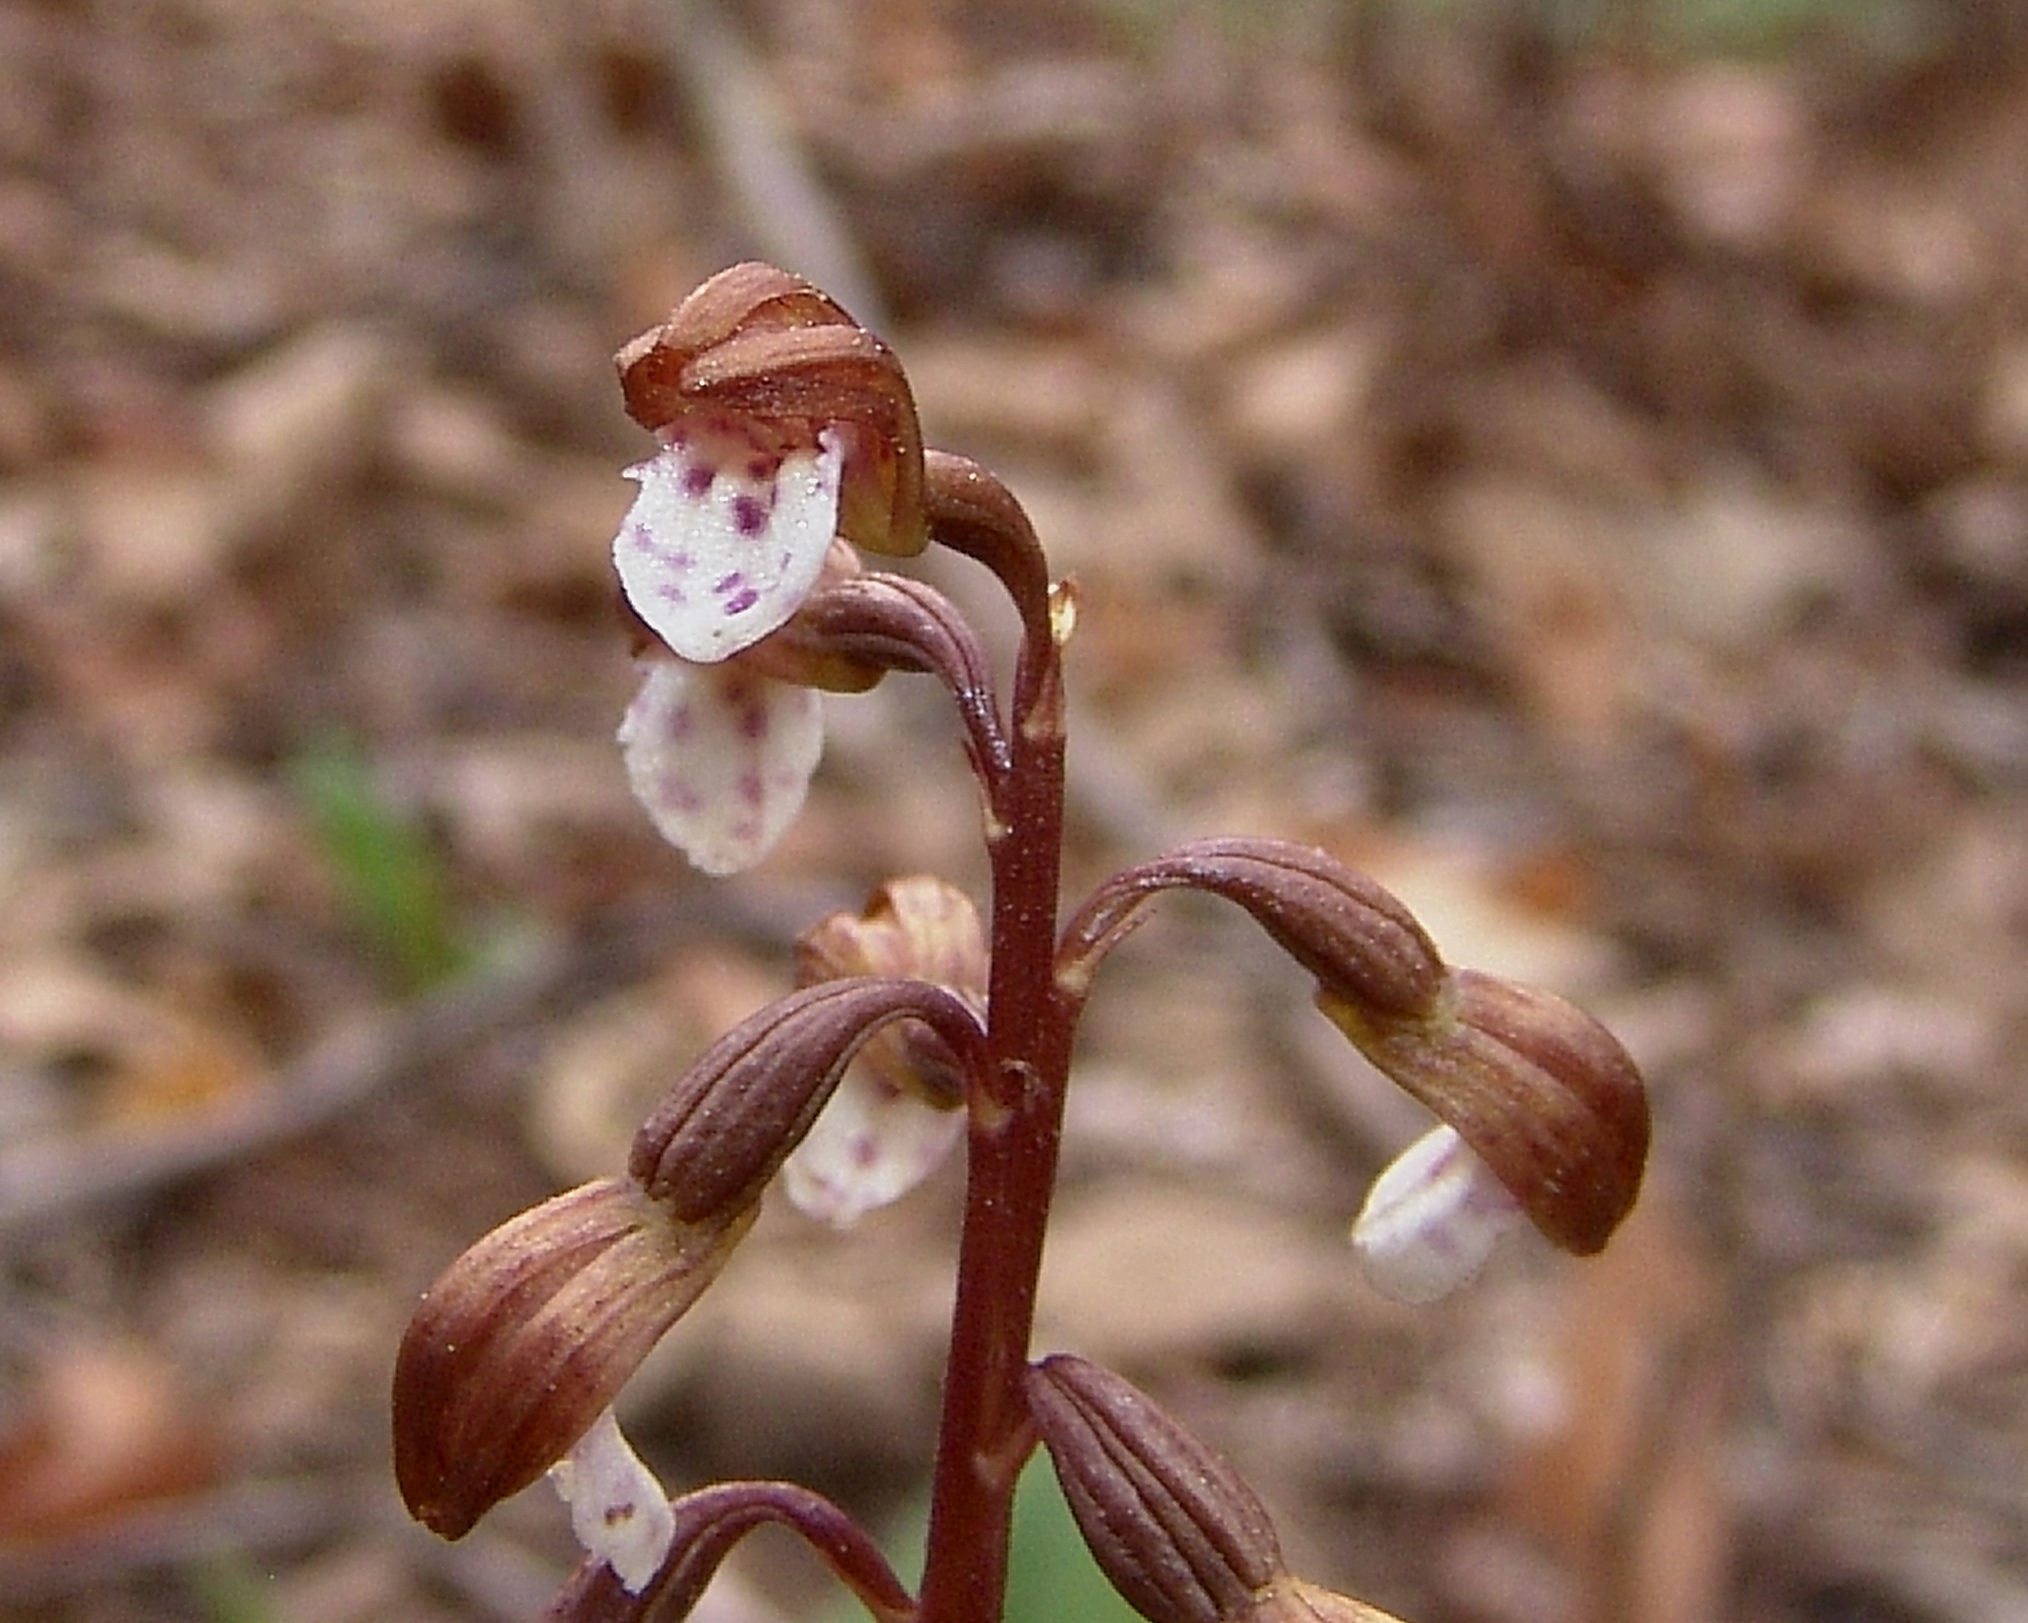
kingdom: Plantae
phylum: Tracheophyta
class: Liliopsida
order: Asparagales
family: Orchidaceae
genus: Corallorhiza
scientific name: Corallorhiza wisteriana
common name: Spring coralroot
